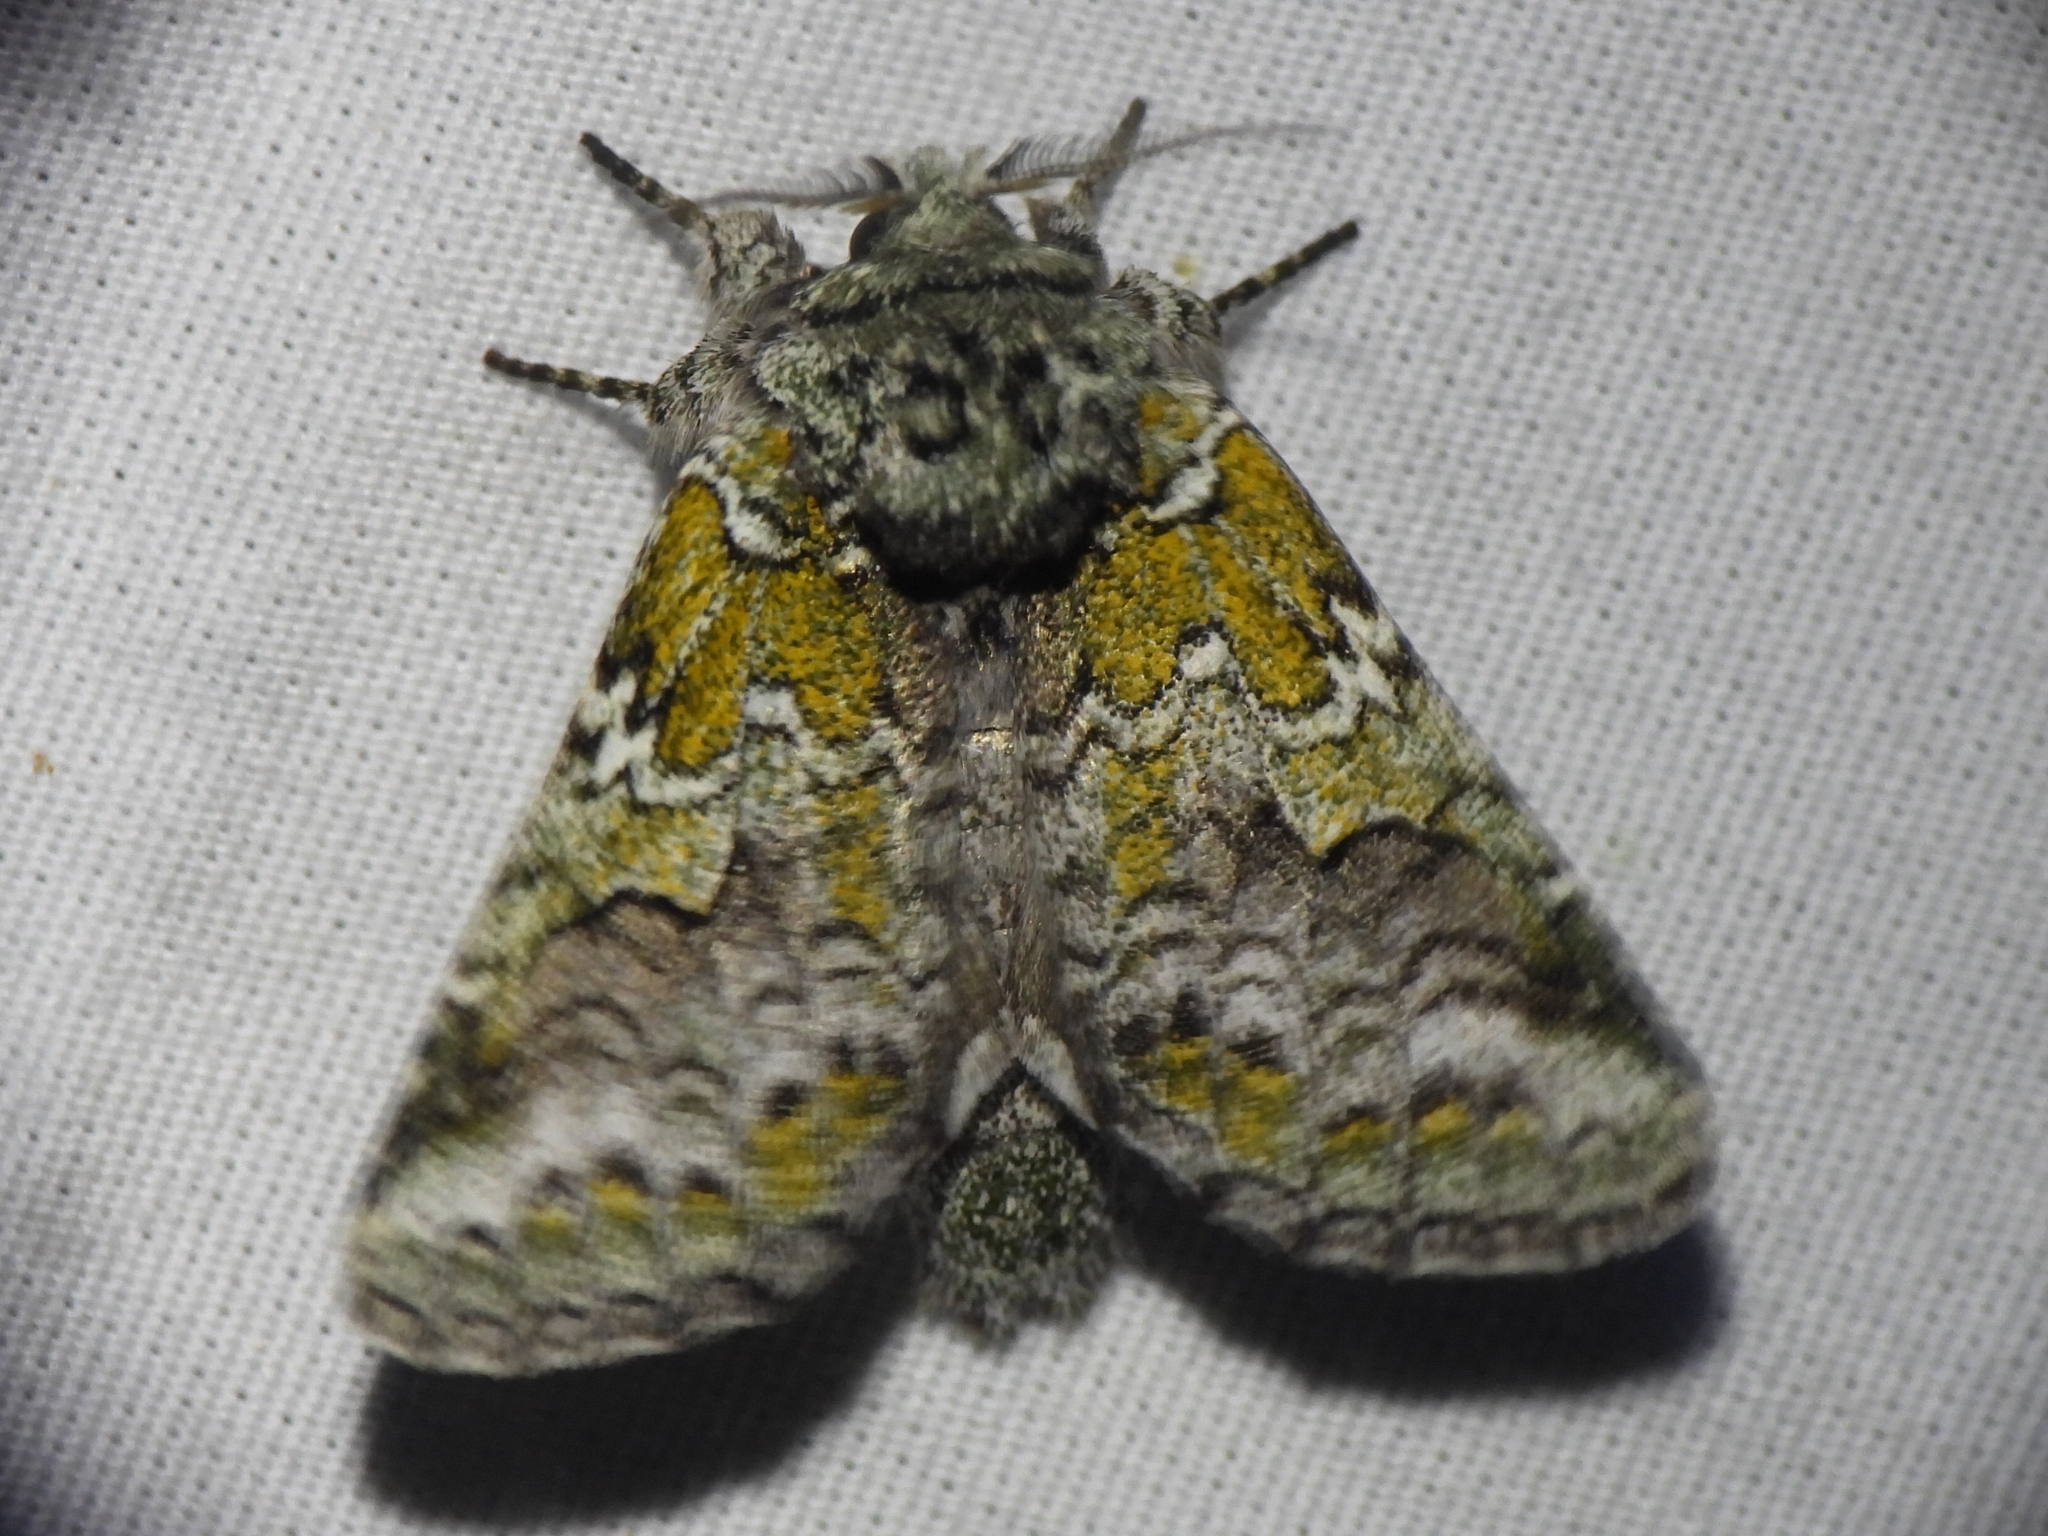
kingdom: Animalia
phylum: Arthropoda
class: Insecta
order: Lepidoptera
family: Notodontidae
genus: Litodonta
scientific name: Litodonta hydromeli
